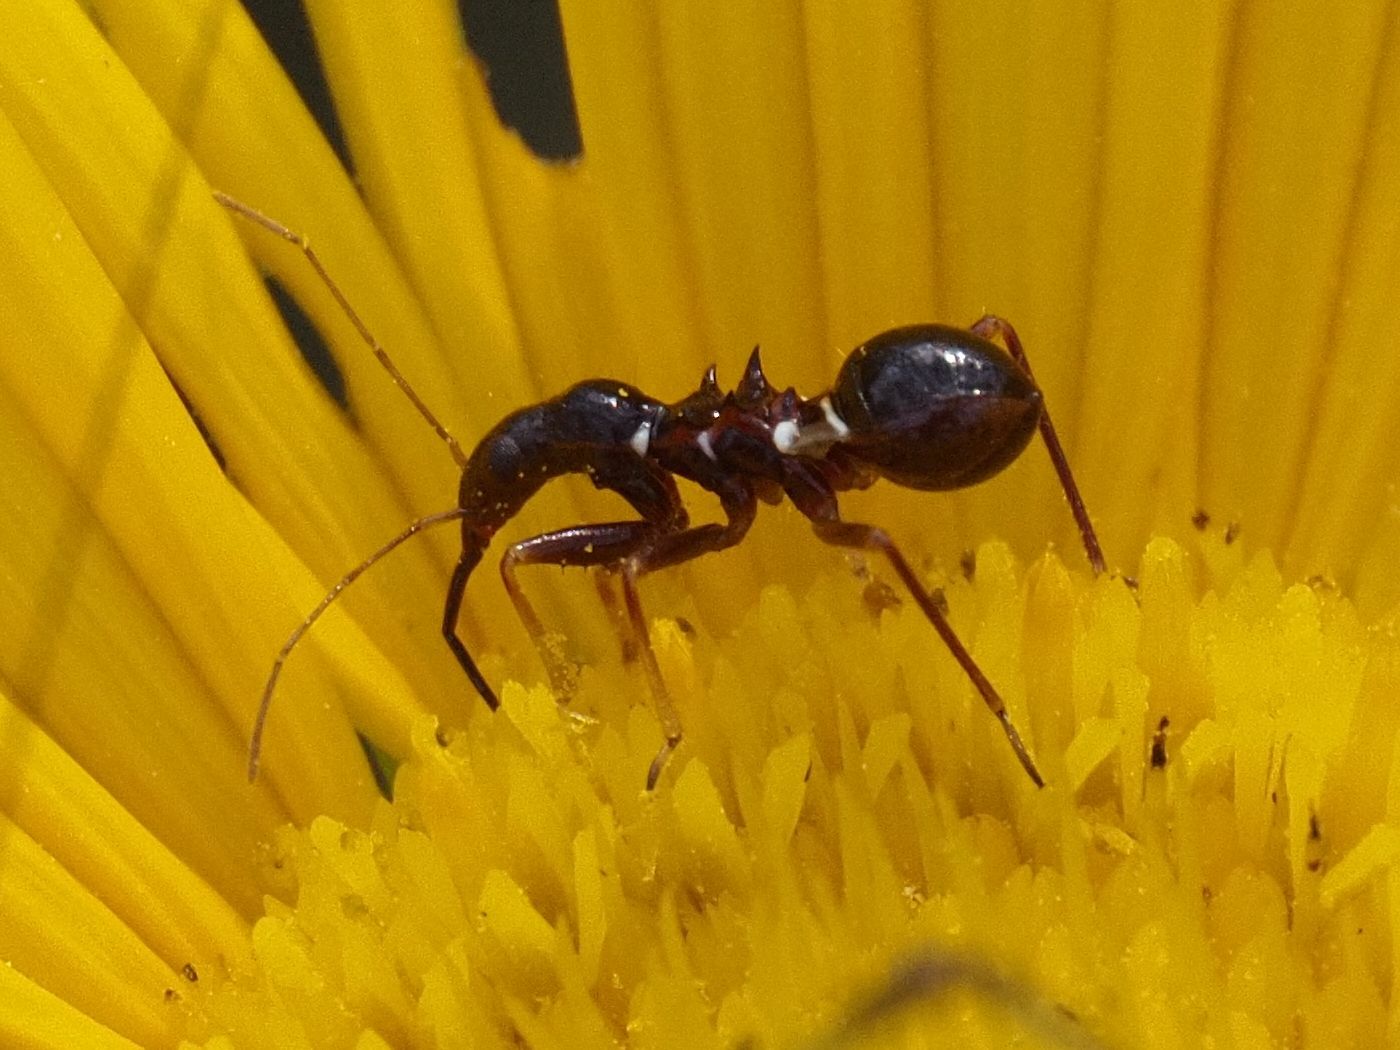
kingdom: Animalia
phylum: Arthropoda
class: Insecta
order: Hemiptera
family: Nabidae
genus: Himacerus
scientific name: Himacerus mirmicoides
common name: Ant damsel bug
